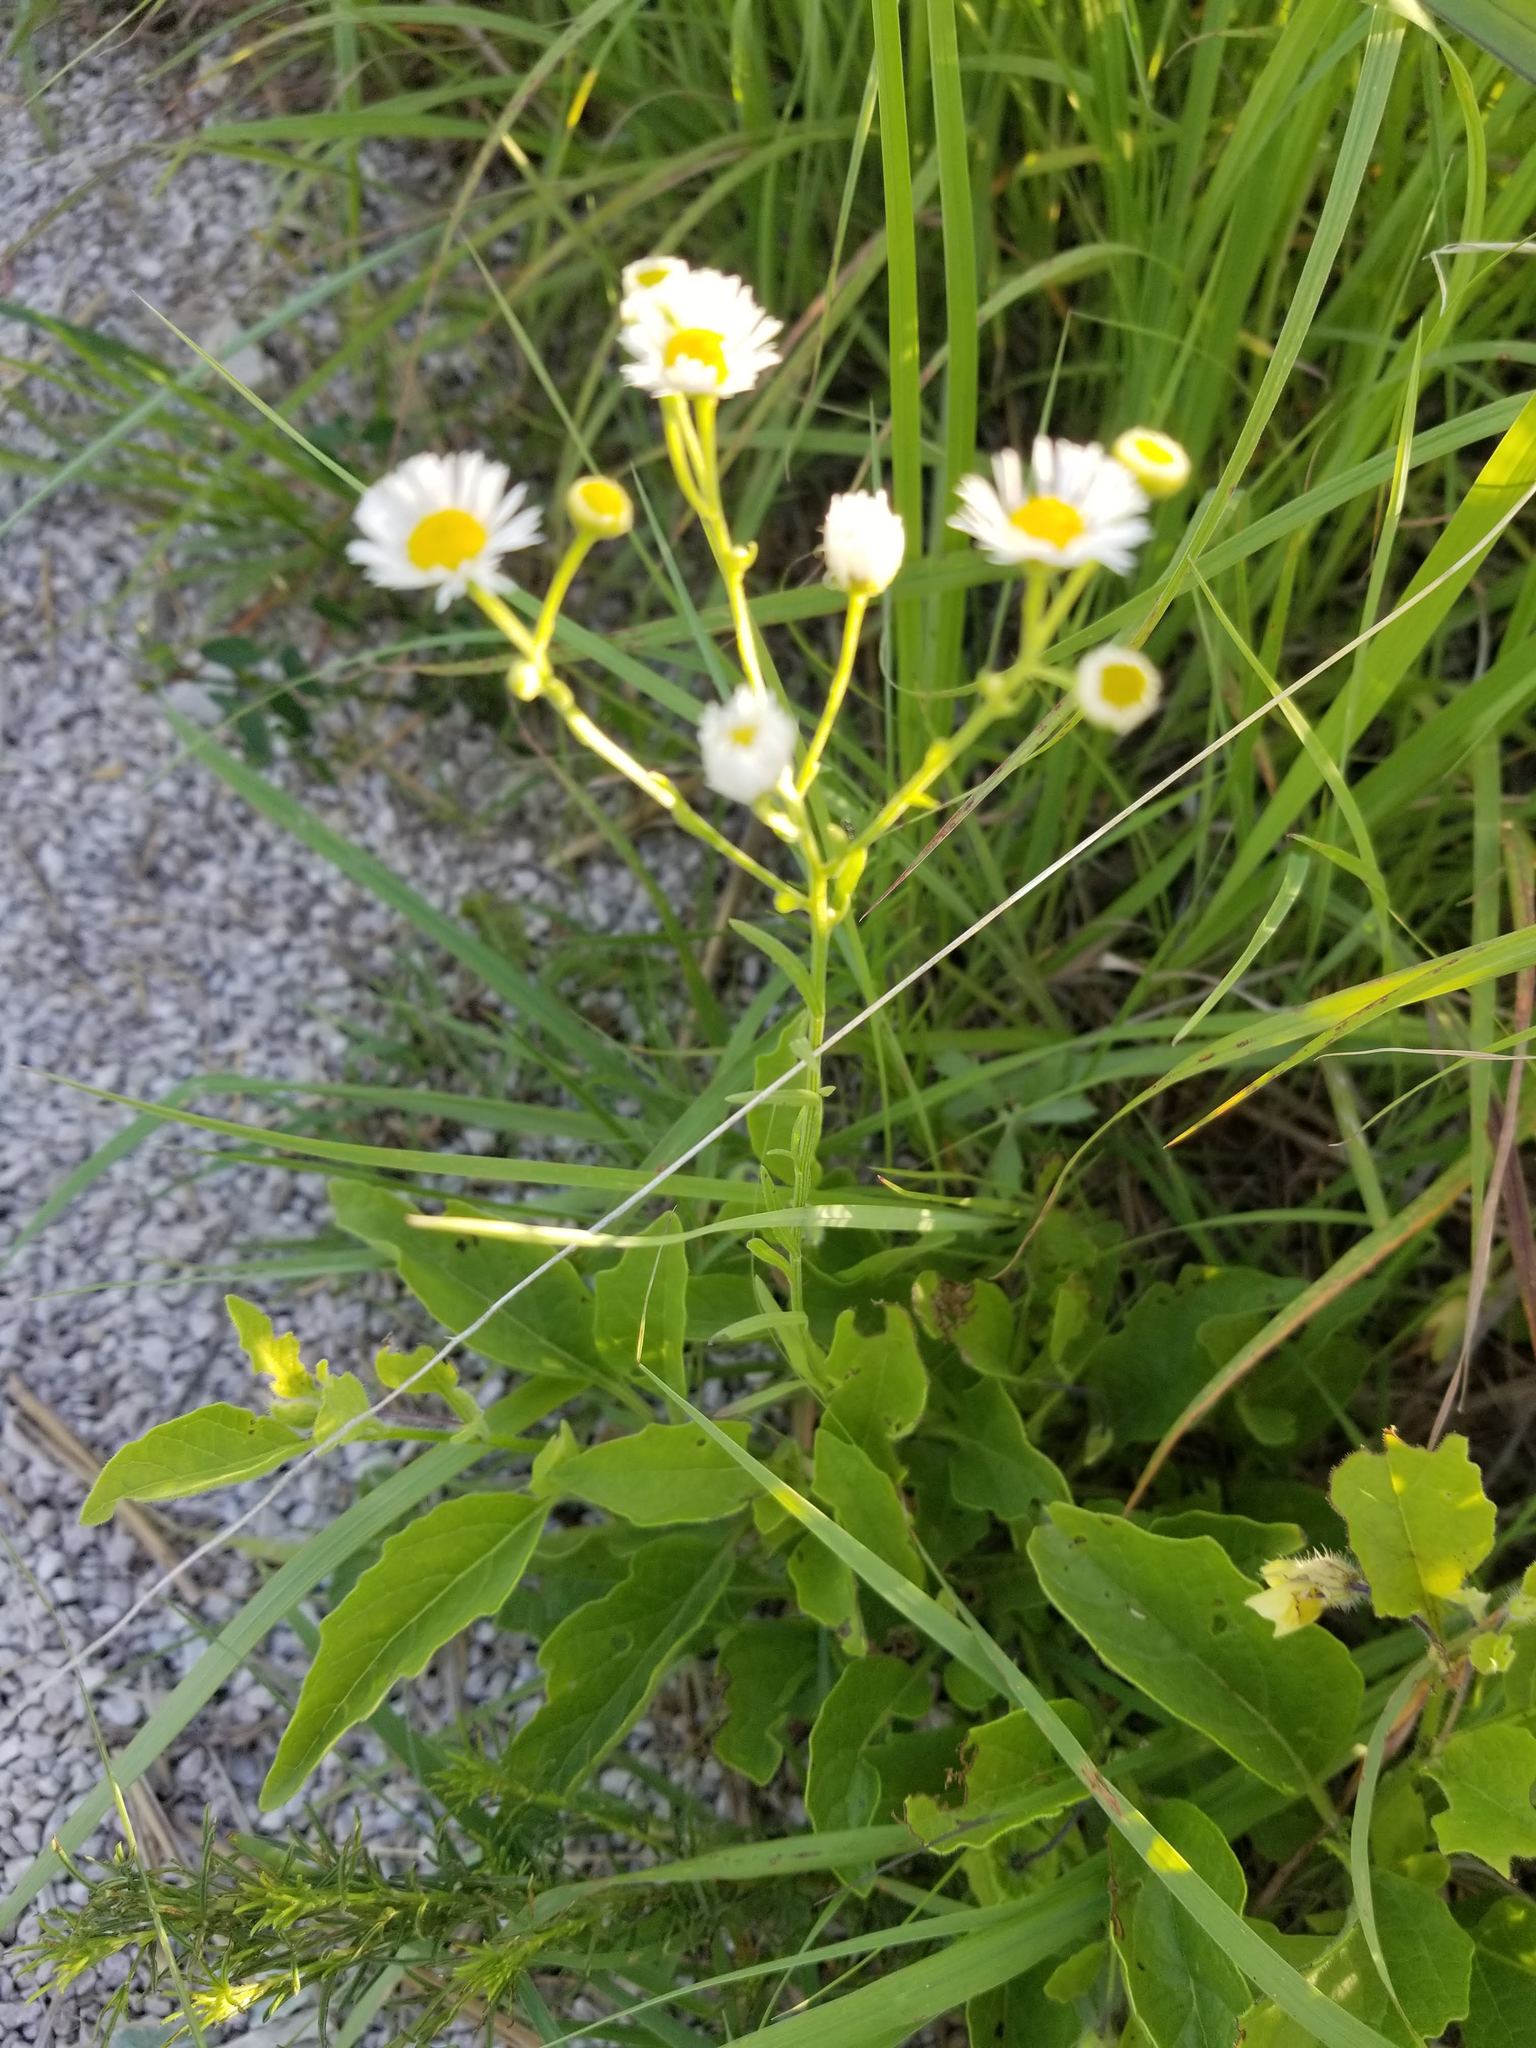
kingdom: Plantae
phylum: Tracheophyta
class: Magnoliopsida
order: Asterales
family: Asteraceae
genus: Erigeron
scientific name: Erigeron strigosus
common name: Common eastern fleabane
